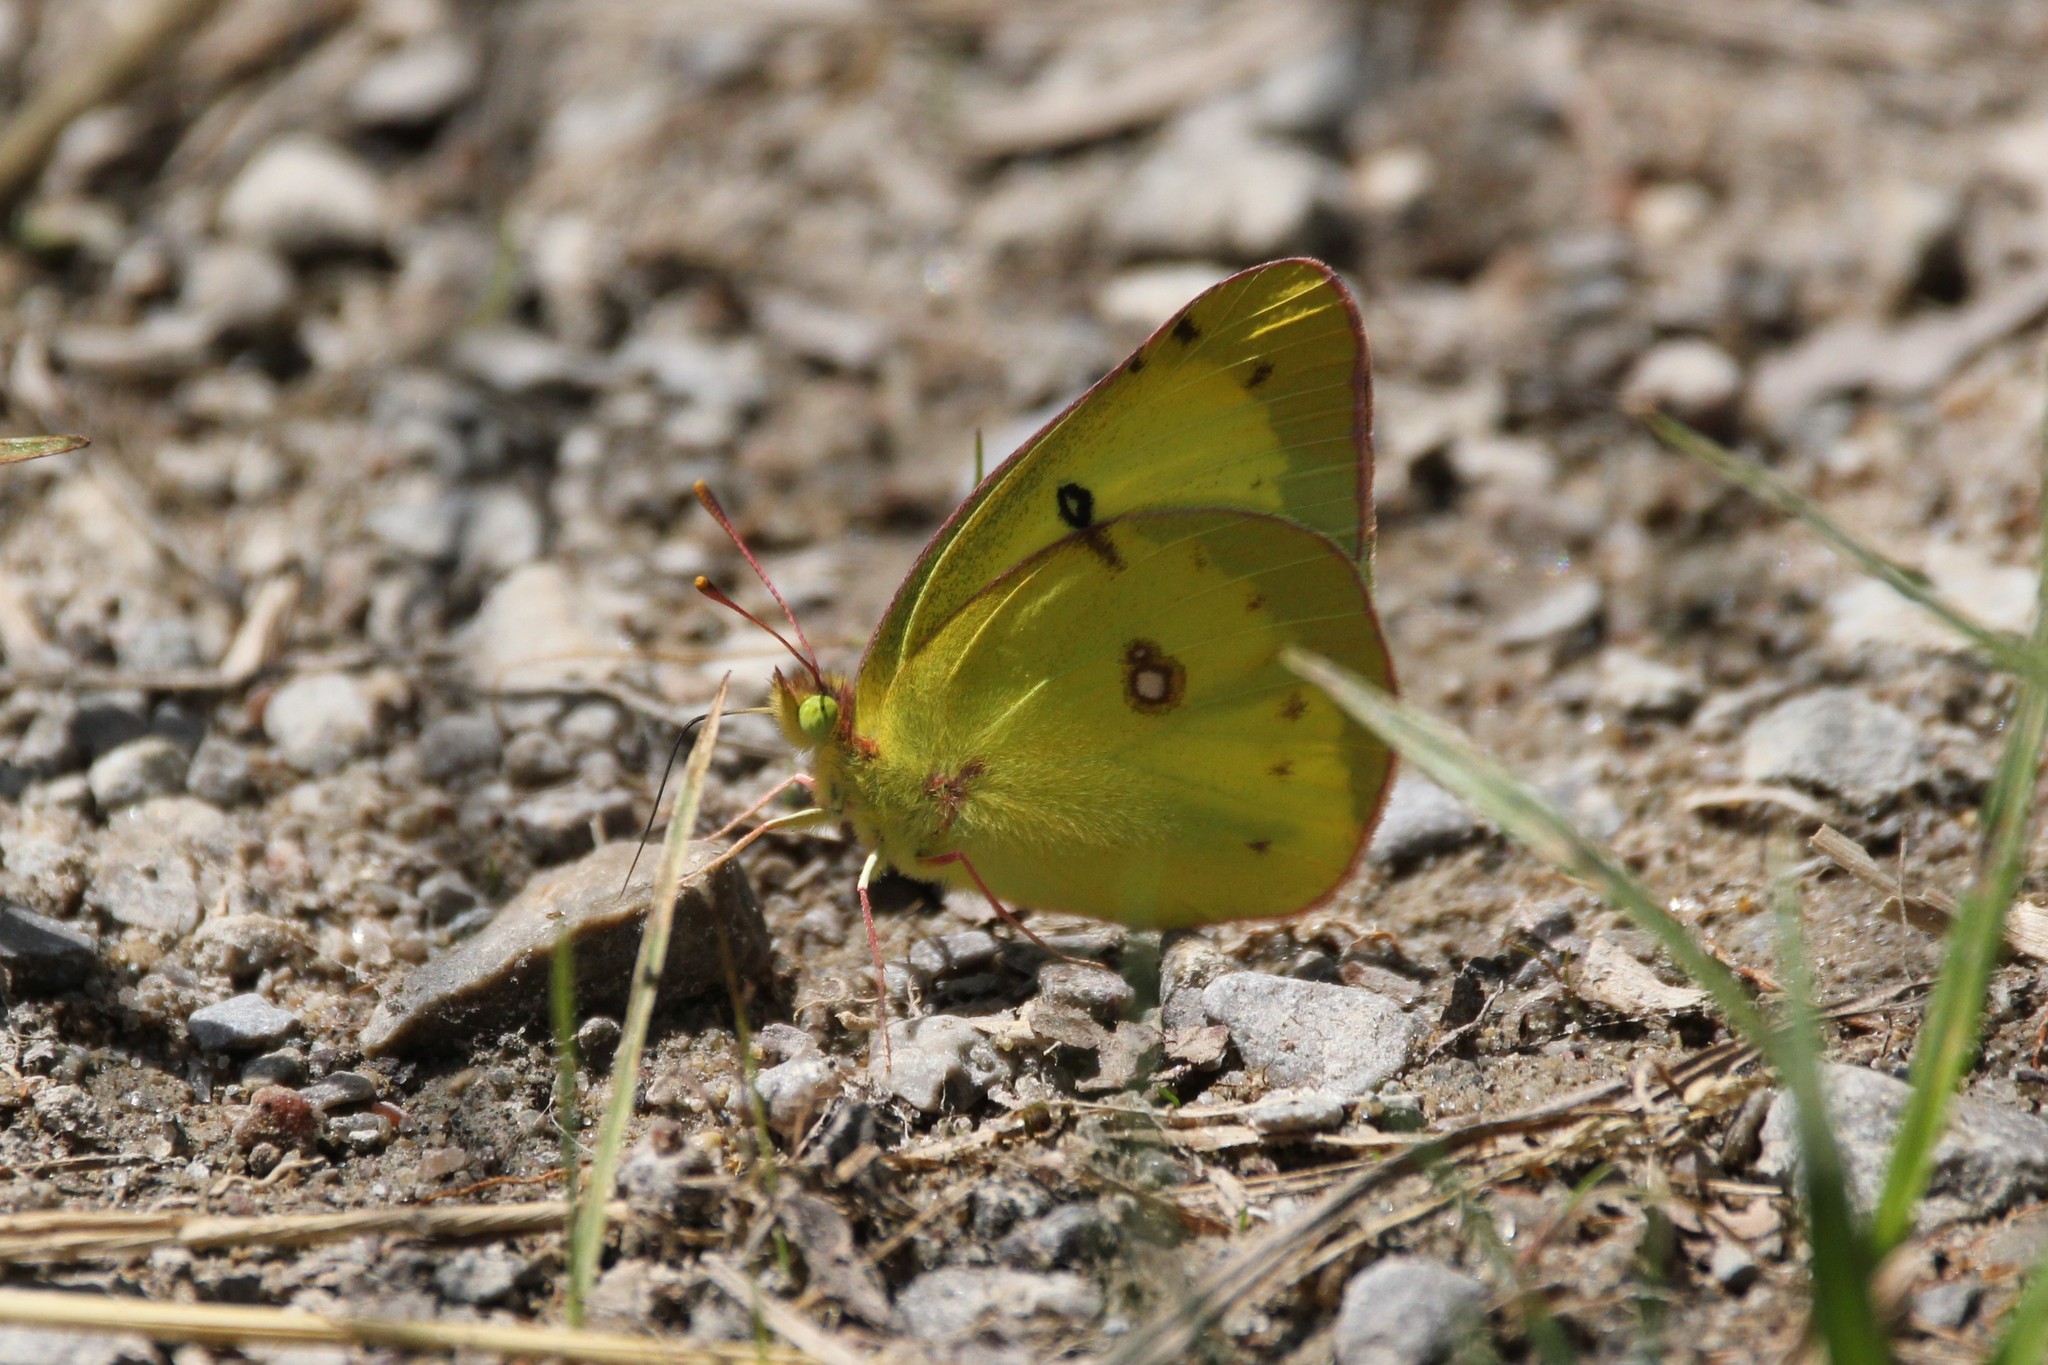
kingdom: Animalia
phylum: Arthropoda
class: Insecta
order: Lepidoptera
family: Pieridae
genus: Colias
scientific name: Colias philodice
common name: Clouded sulphur
